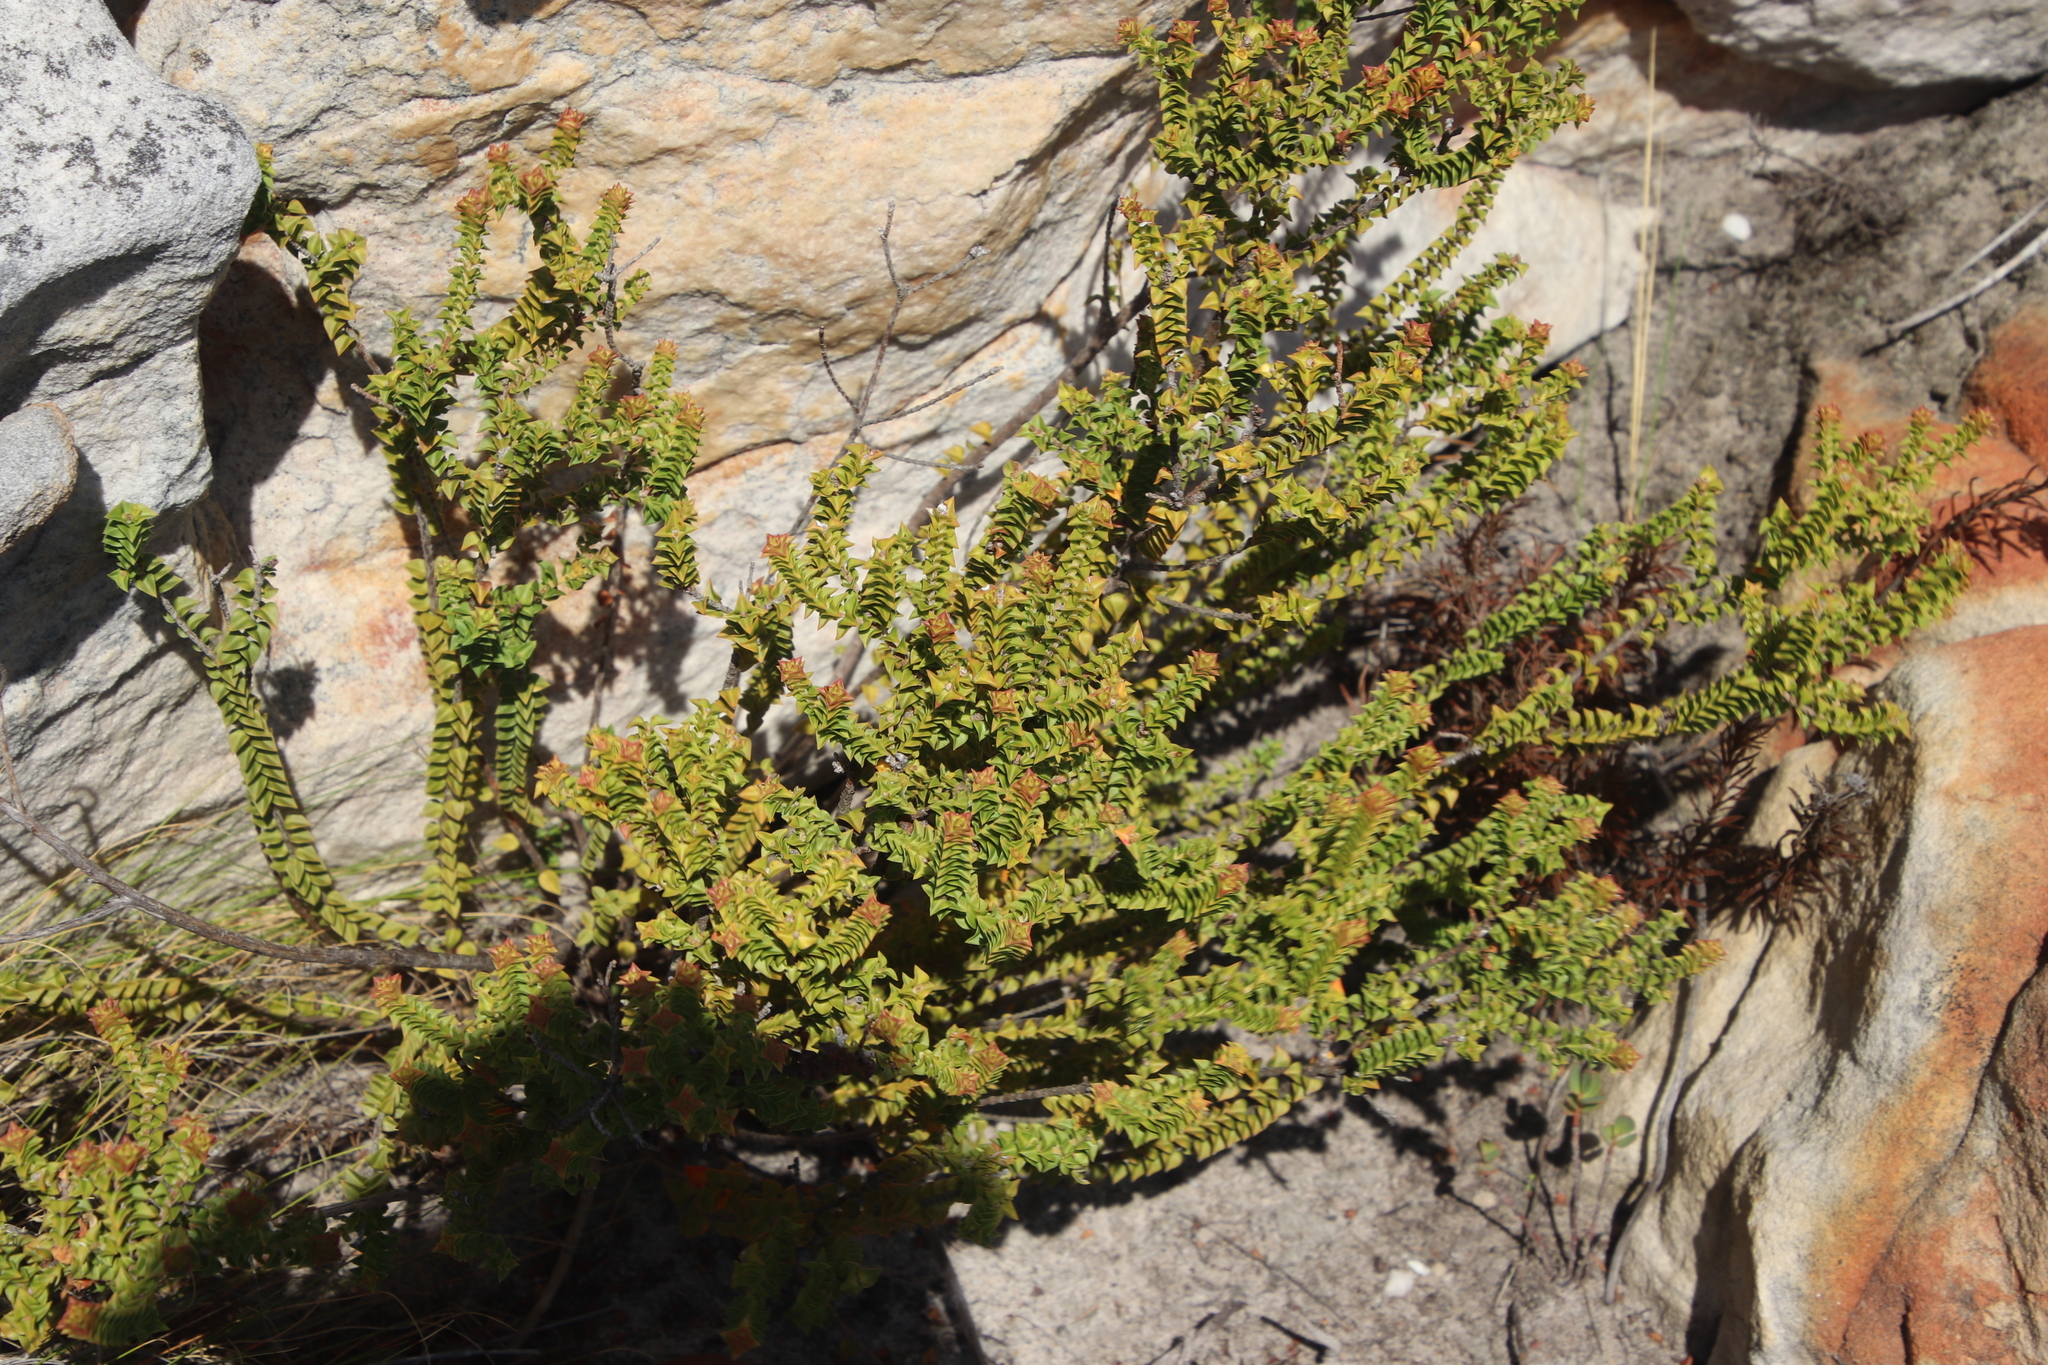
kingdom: Plantae
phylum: Tracheophyta
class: Magnoliopsida
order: Myrtales
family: Penaeaceae
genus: Penaea
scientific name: Penaea mucronata
